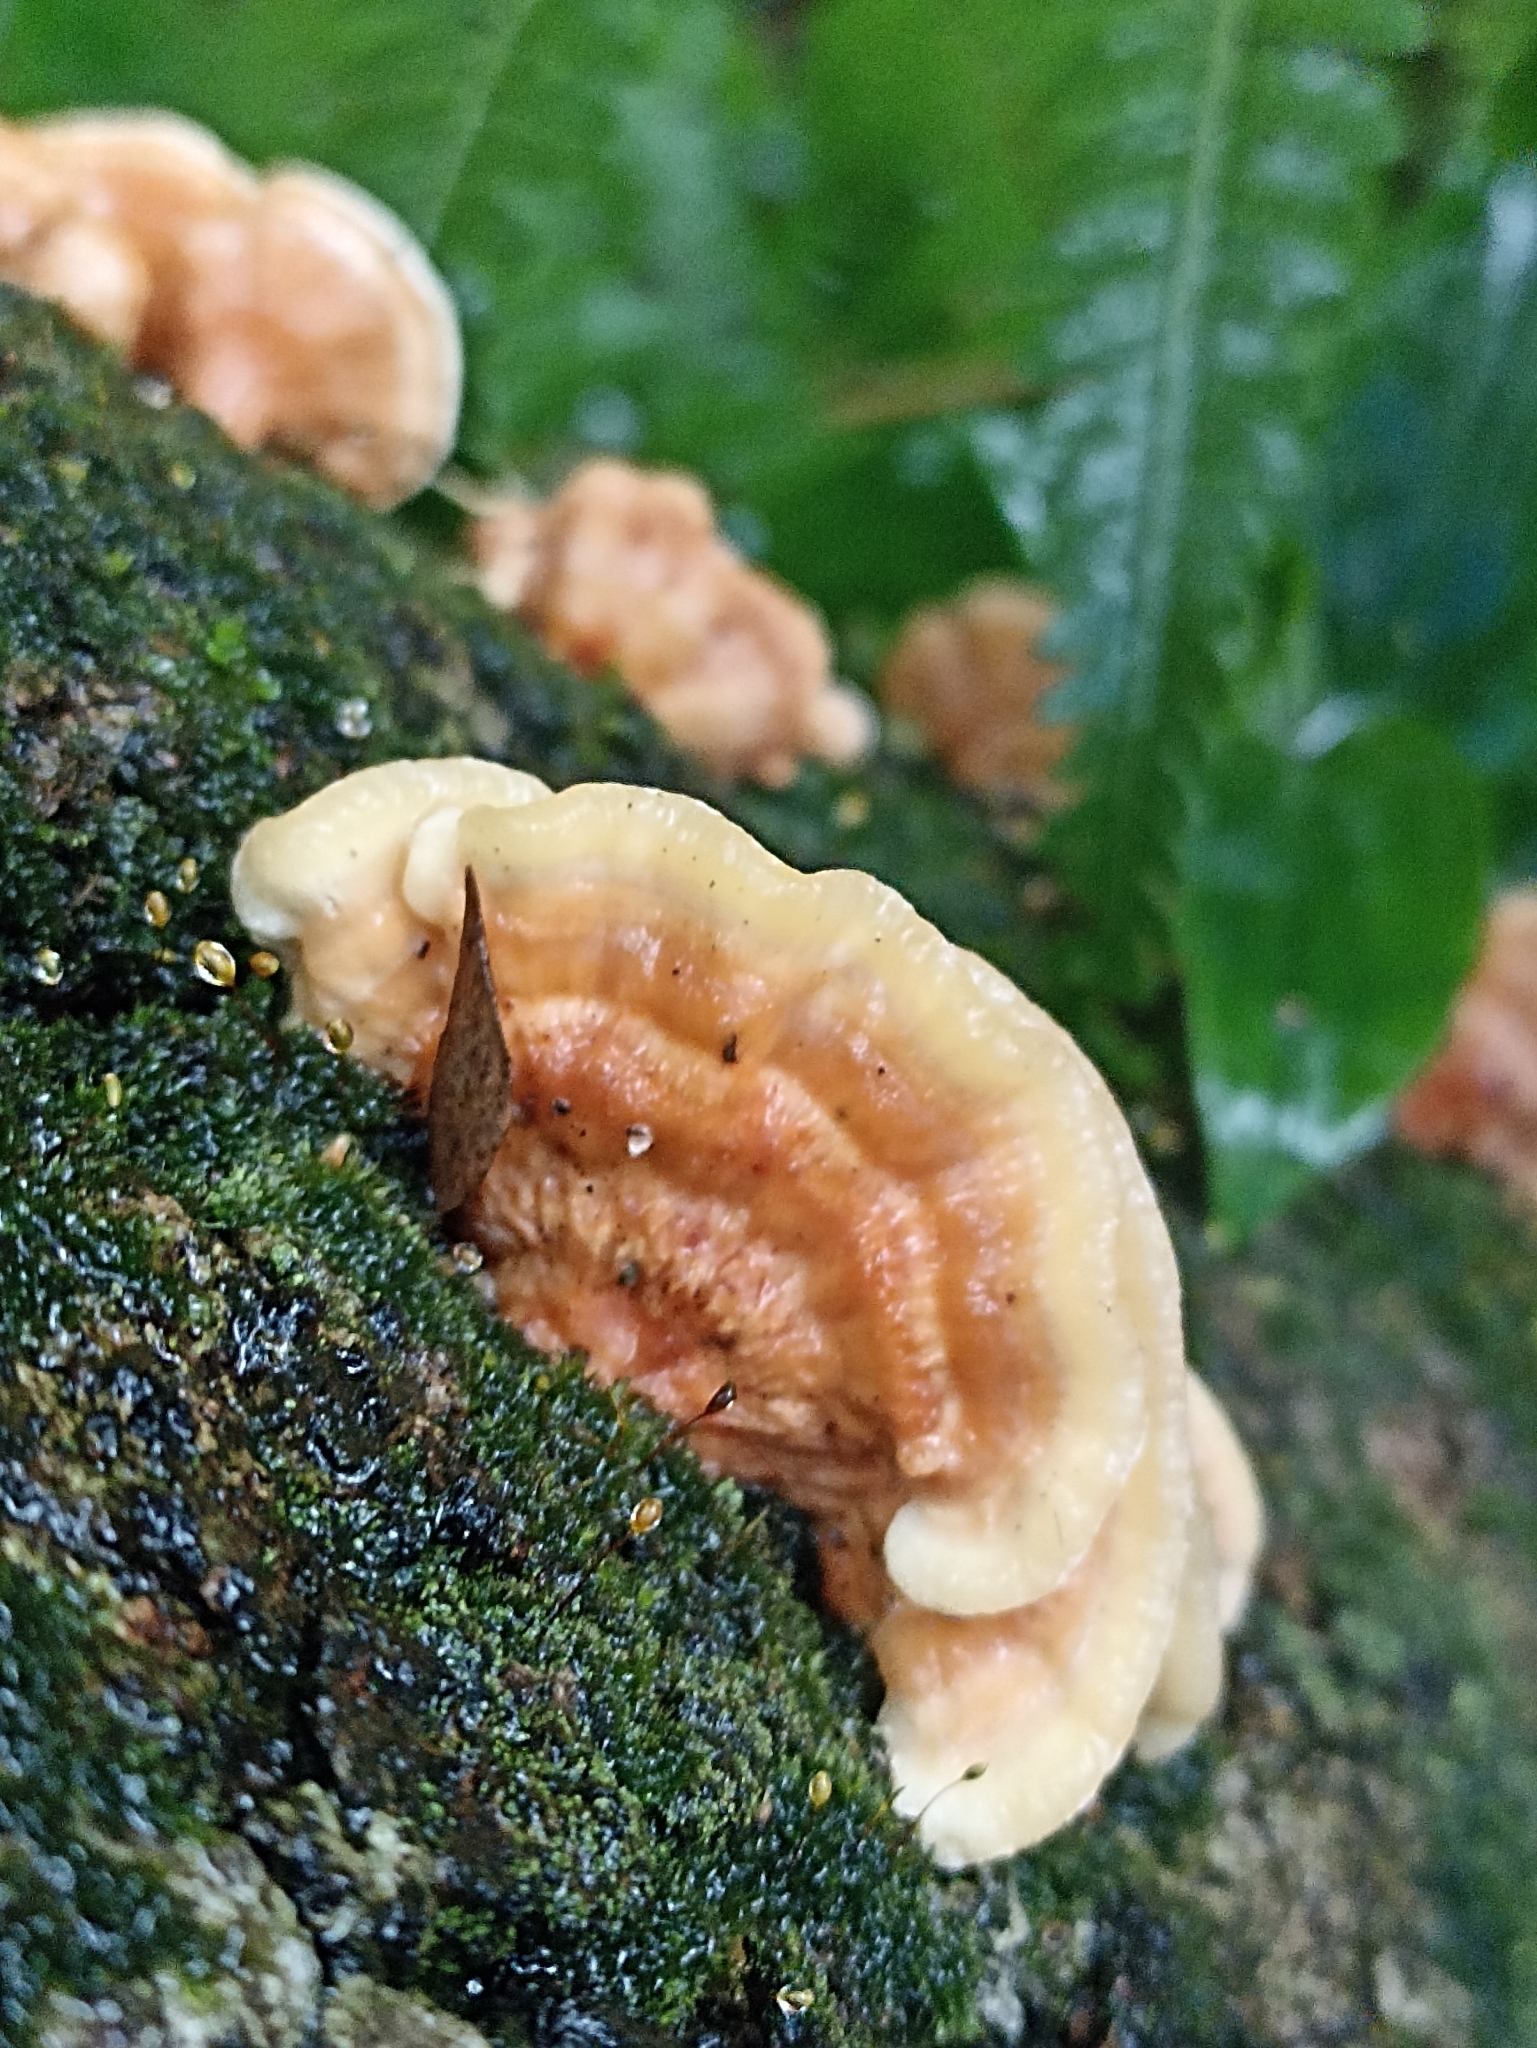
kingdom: Fungi
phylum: Basidiomycota
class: Agaricomycetes
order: Polyporales
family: Cerrenaceae
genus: Cerrena
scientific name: Cerrena zonata
